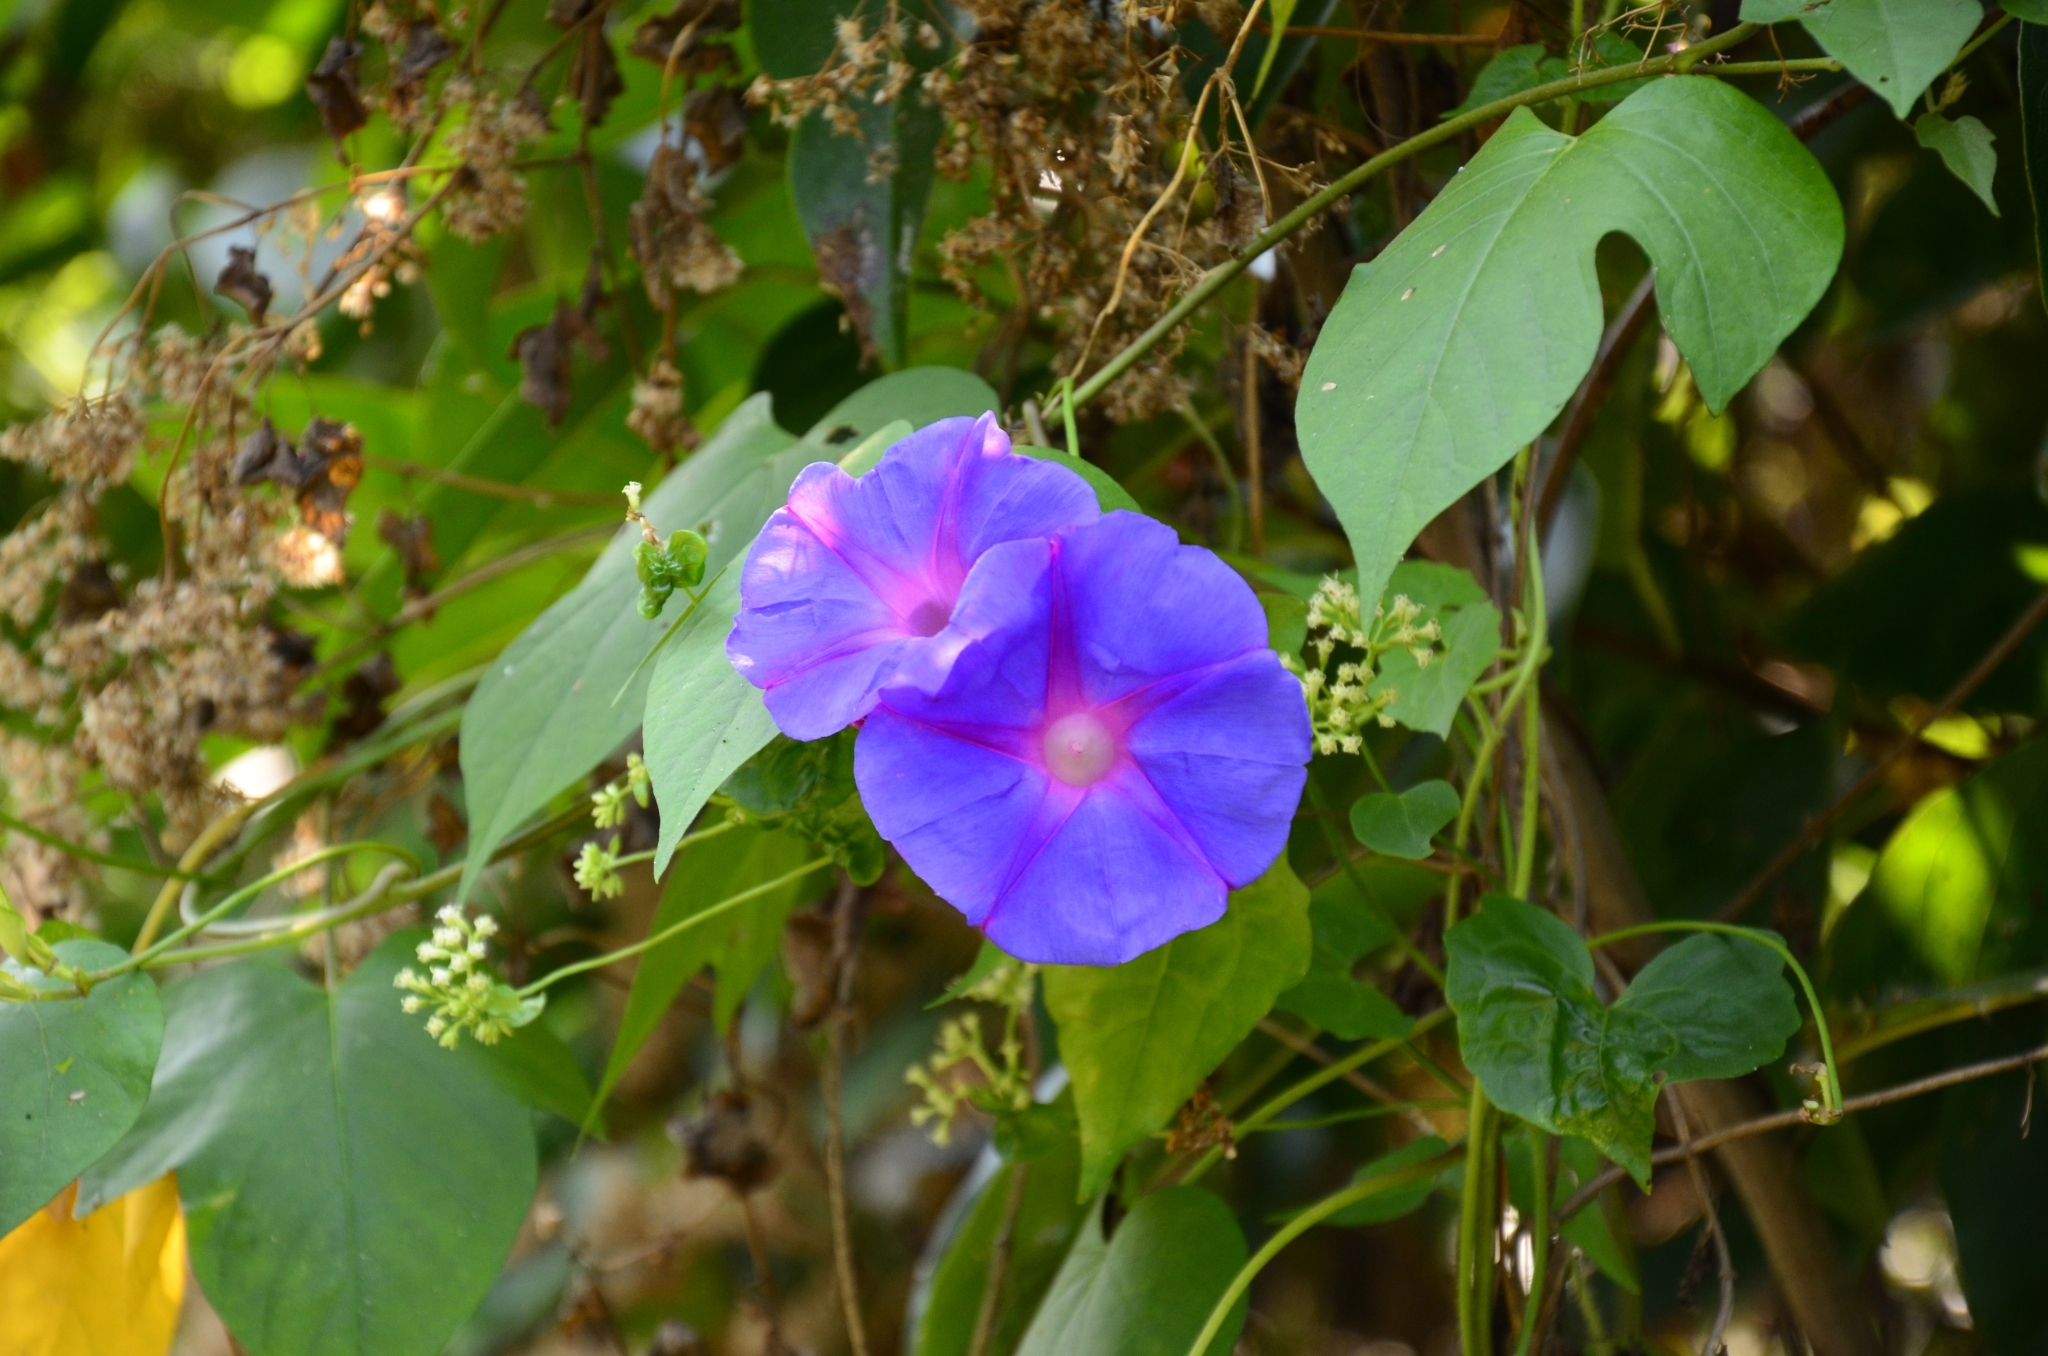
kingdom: Plantae
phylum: Tracheophyta
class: Magnoliopsida
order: Solanales
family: Convolvulaceae
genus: Ipomoea
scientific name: Ipomoea indica
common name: Blue dawnflower
